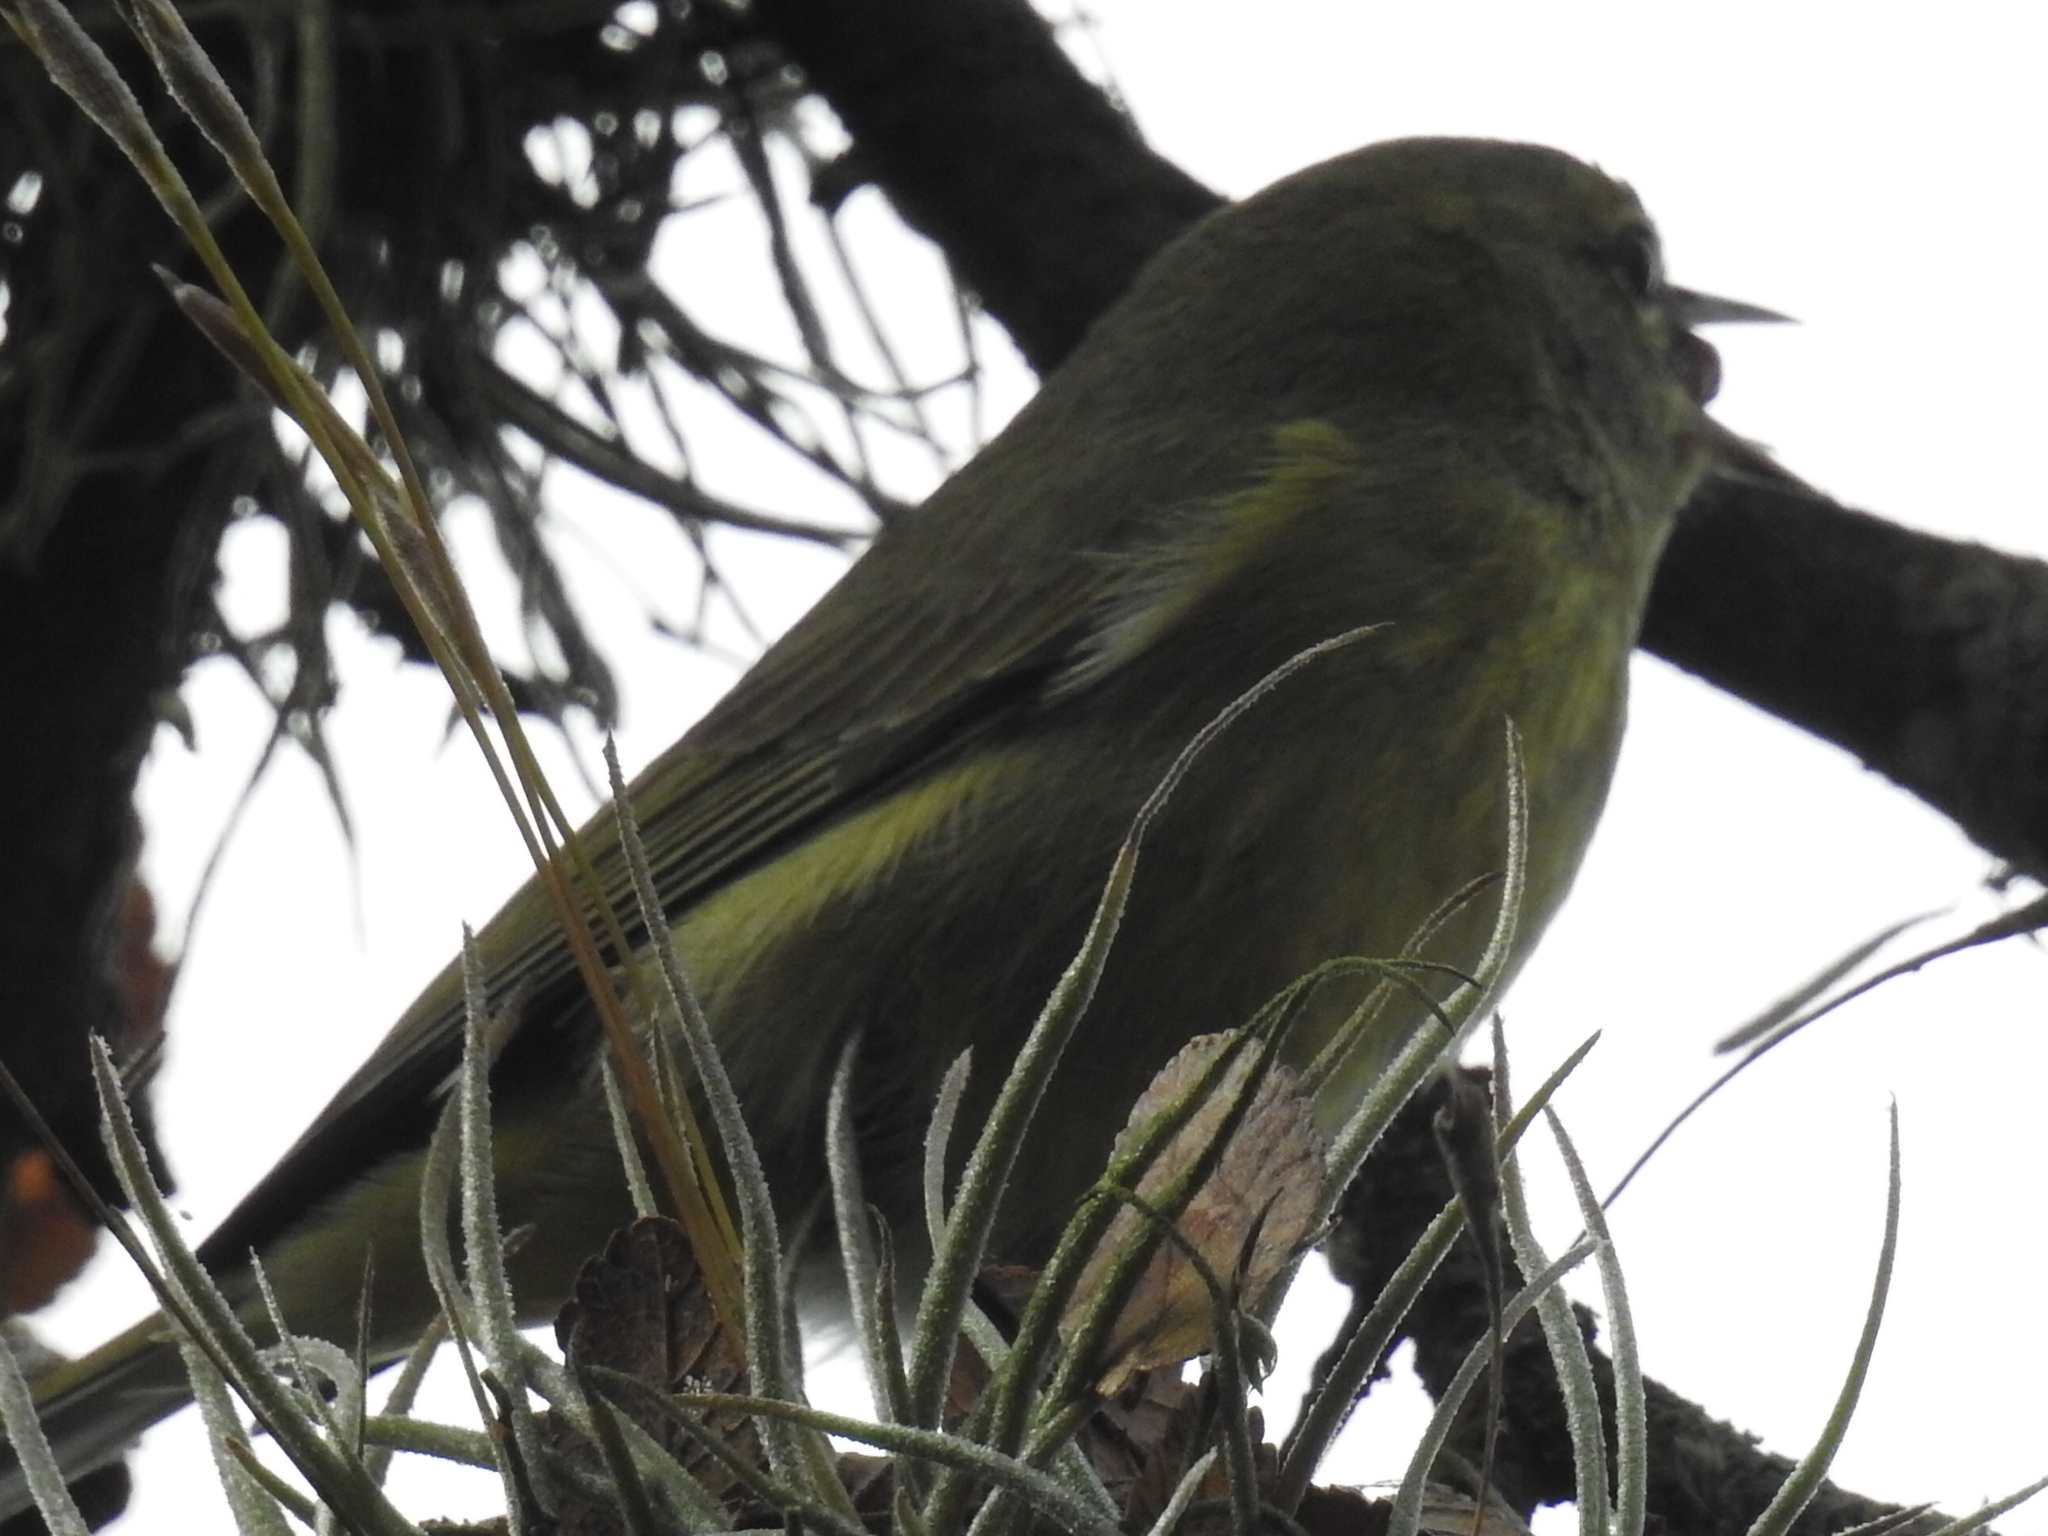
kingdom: Animalia
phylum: Chordata
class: Aves
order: Passeriformes
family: Parulidae
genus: Leiothlypis
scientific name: Leiothlypis celata
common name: Orange-crowned warbler
